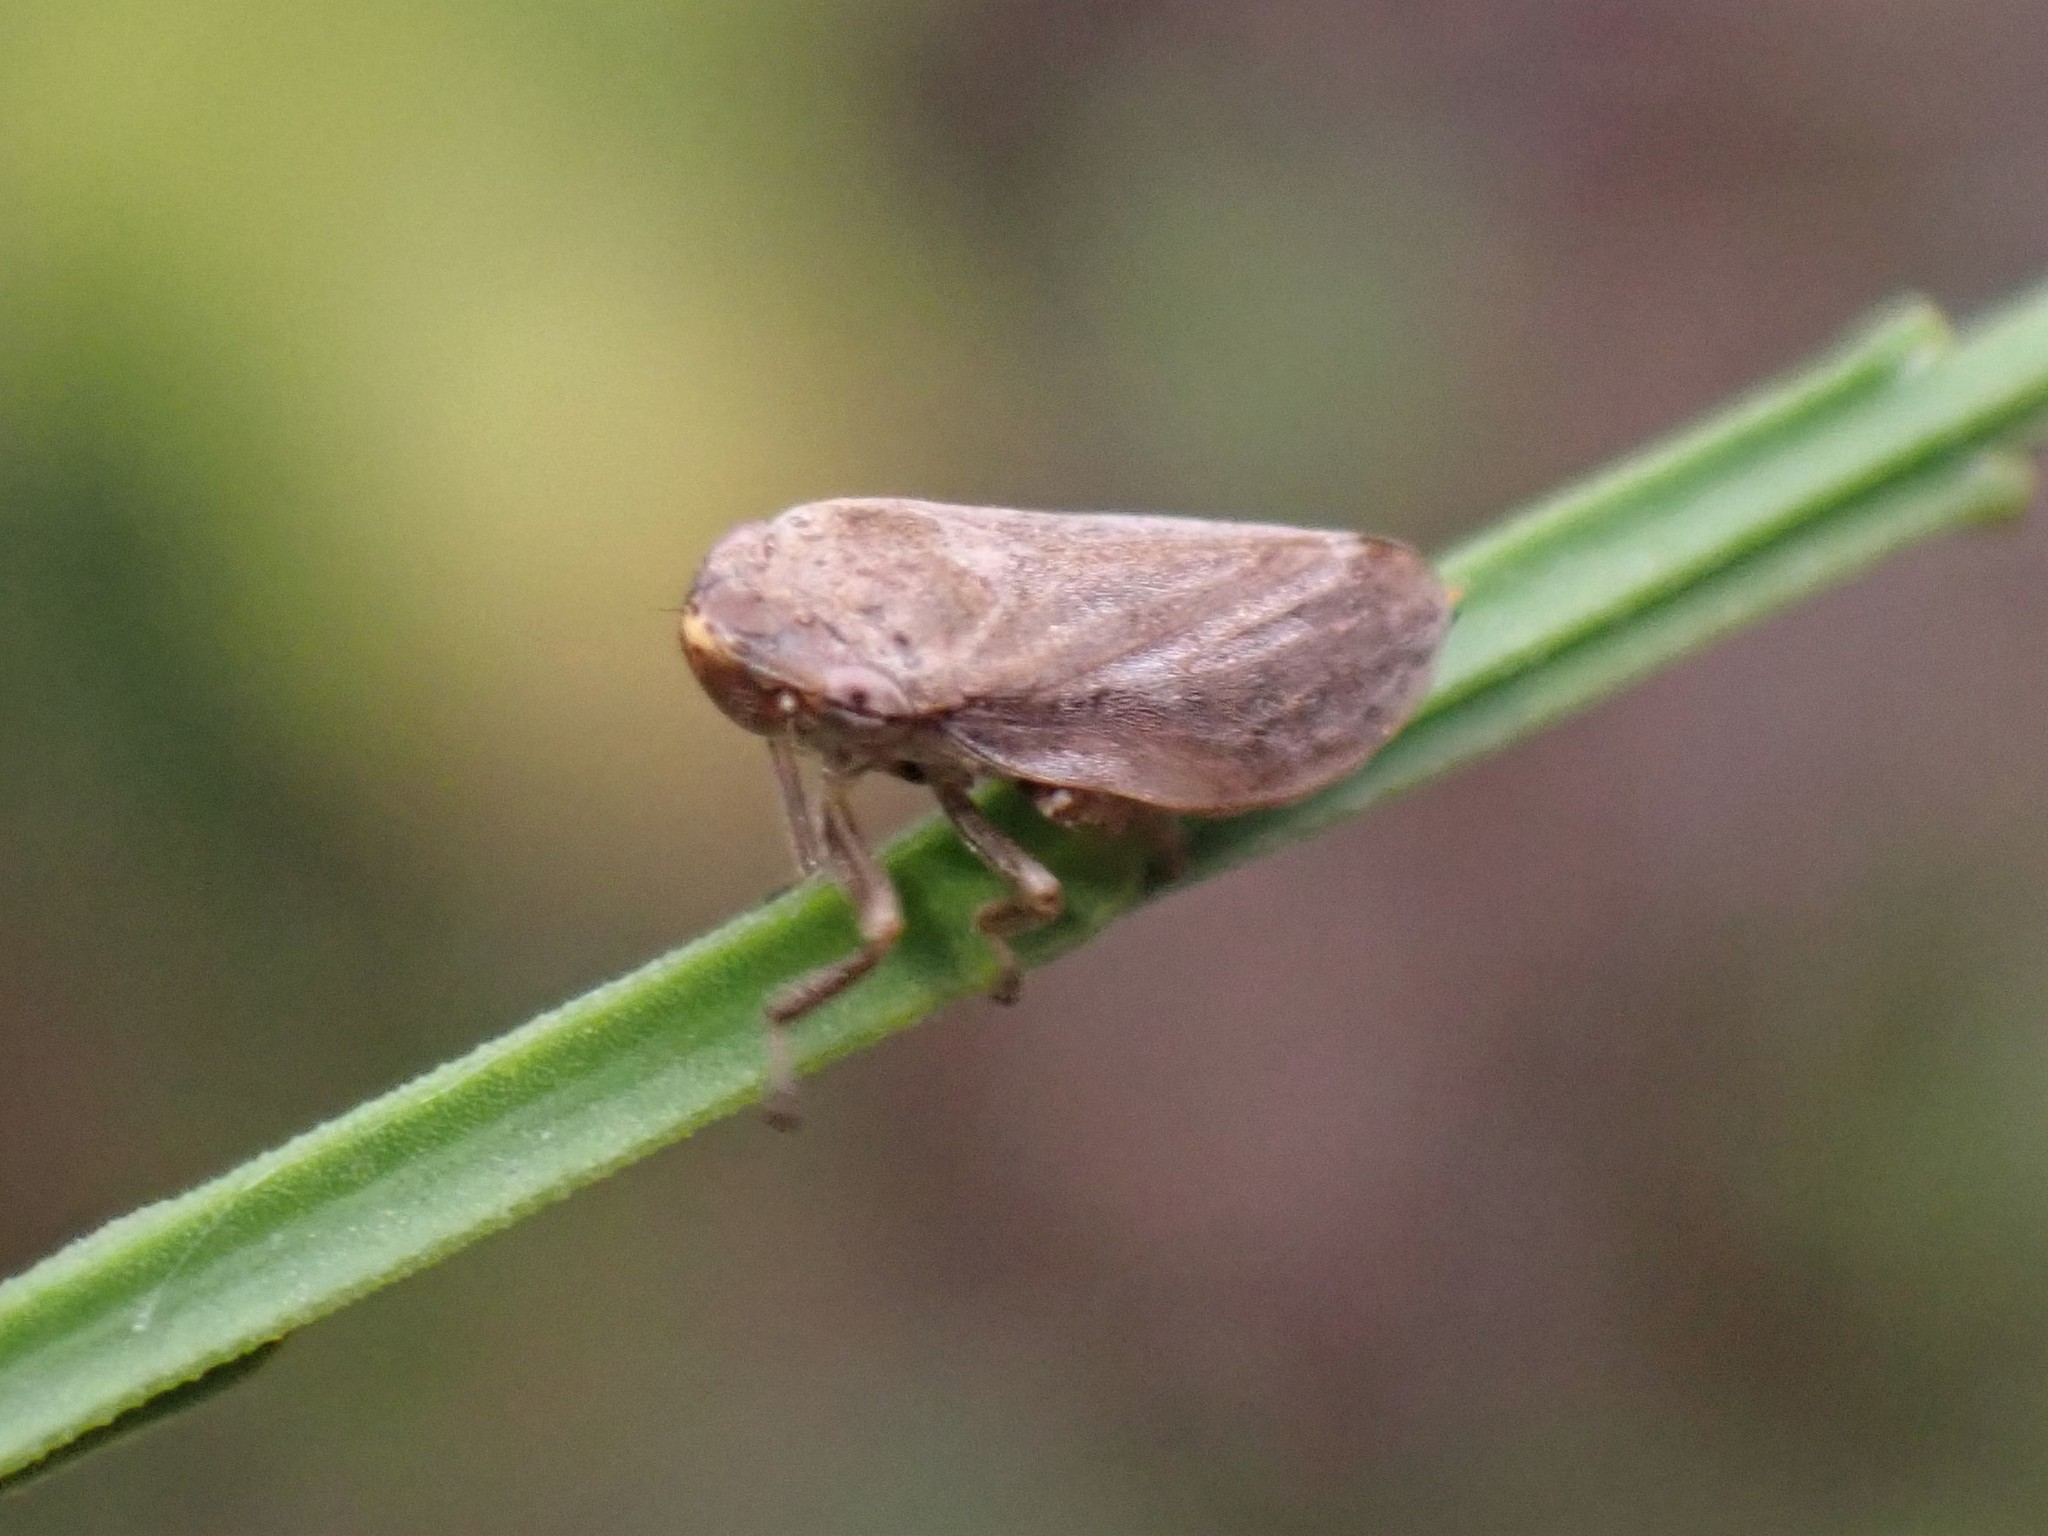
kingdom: Animalia
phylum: Arthropoda
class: Insecta
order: Hemiptera
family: Aphrophoridae
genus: Philaenus
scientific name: Philaenus spumarius
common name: Meadow spittlebug
